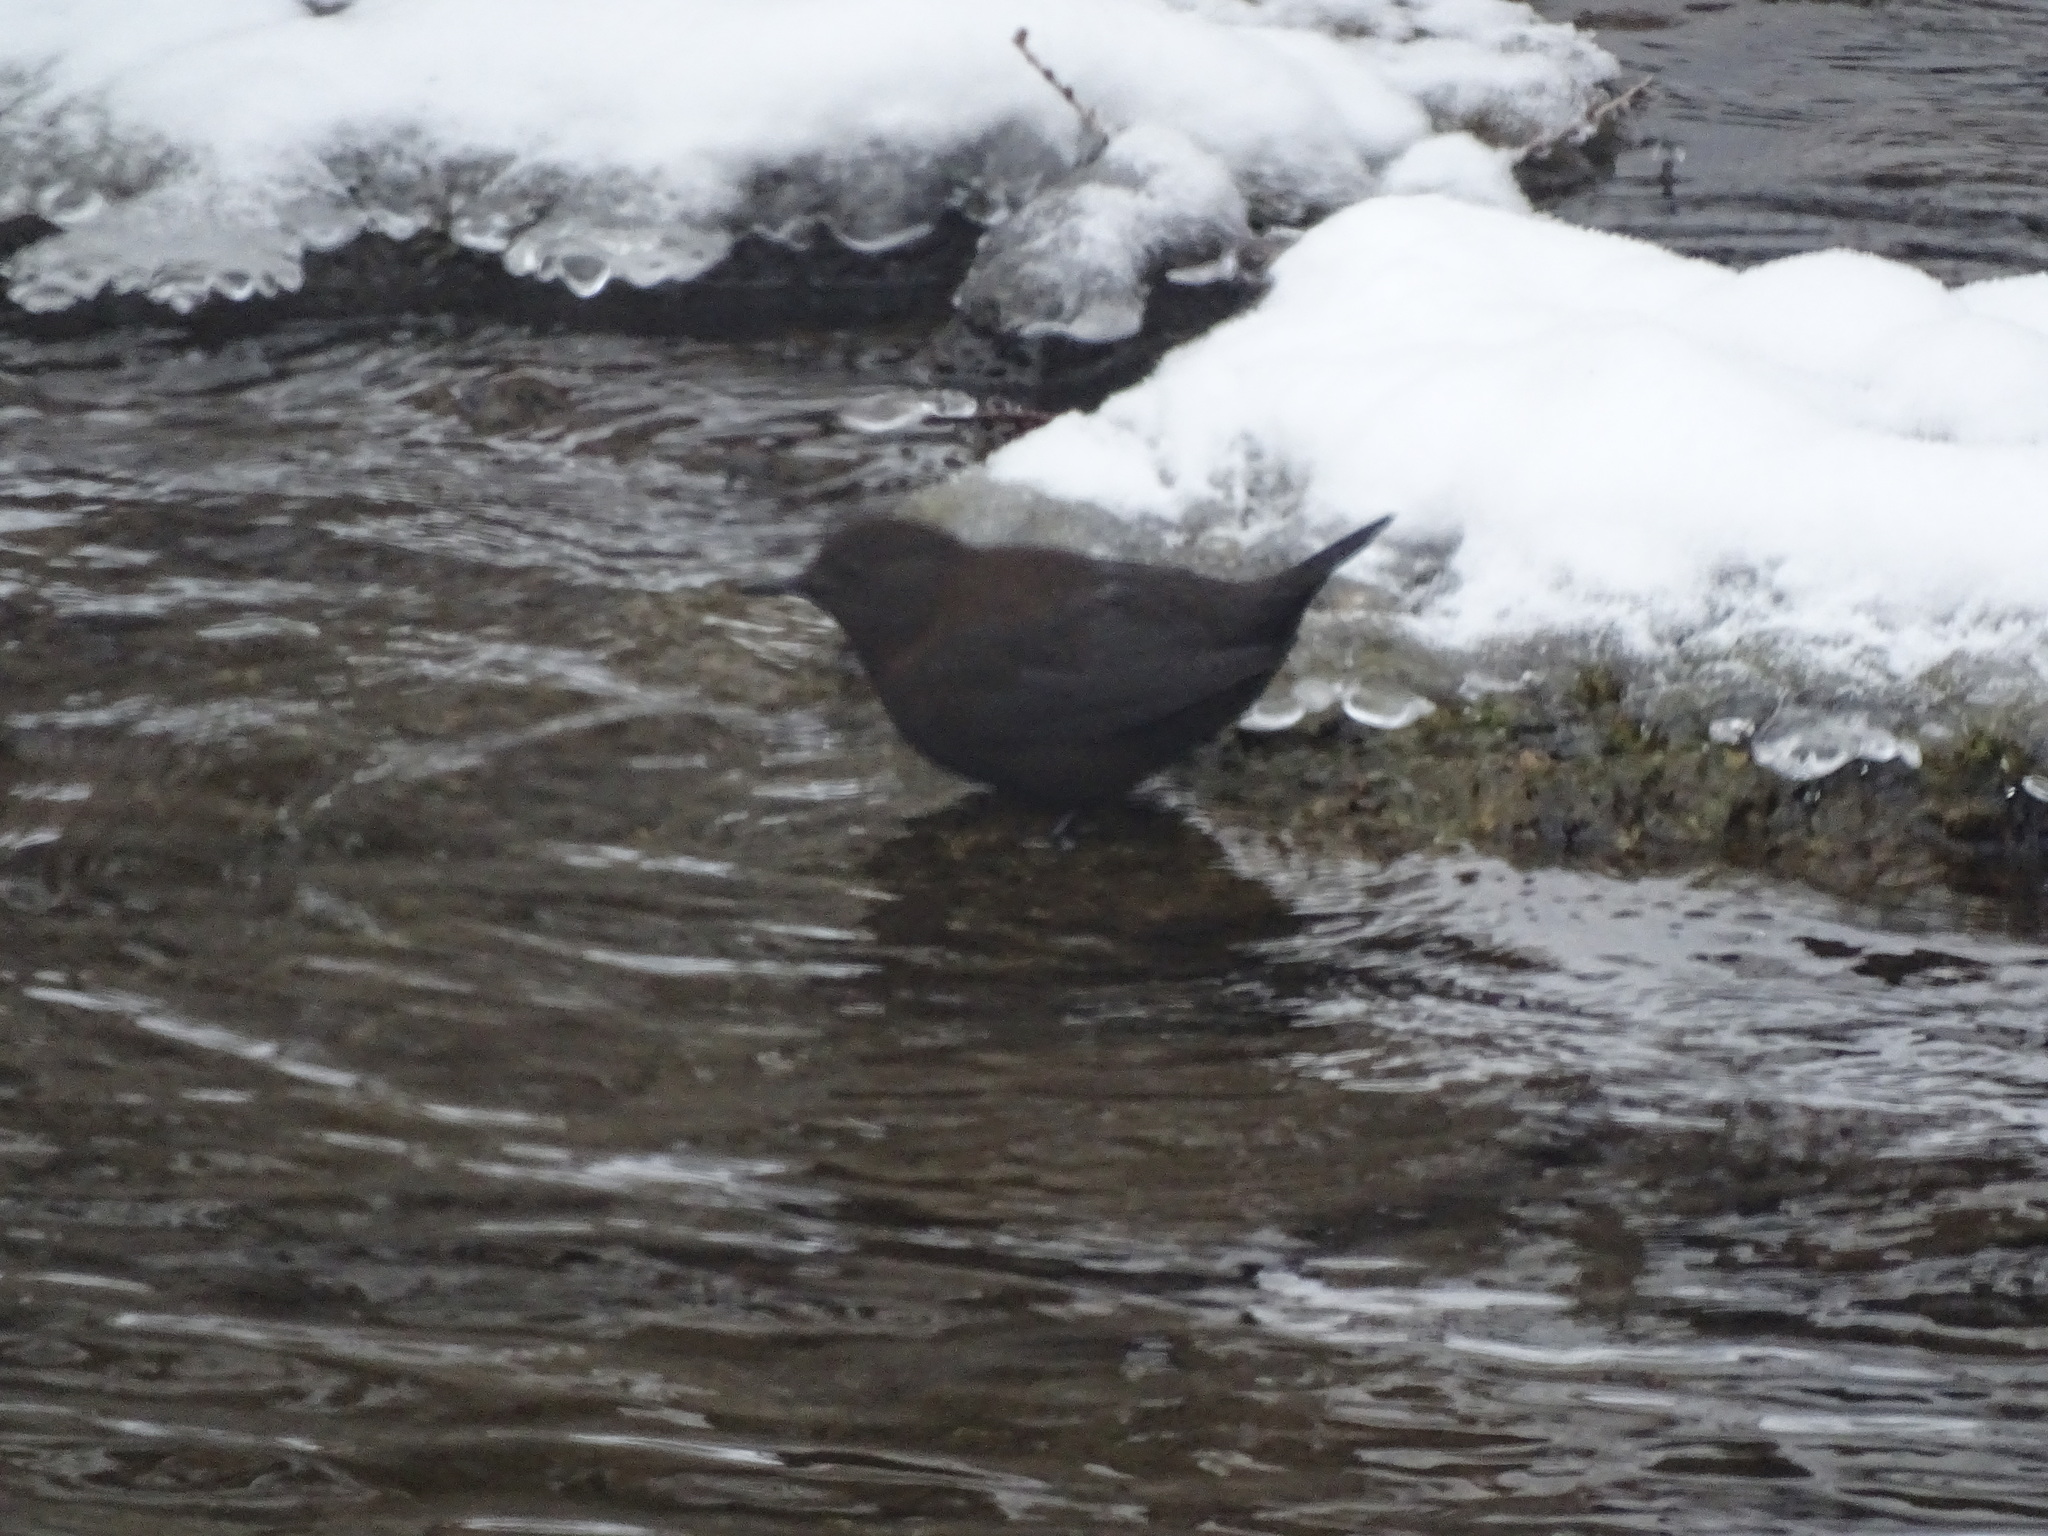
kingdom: Animalia
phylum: Chordata
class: Aves
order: Passeriformes
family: Cinclidae
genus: Cinclus
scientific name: Cinclus pallasii
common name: Brown dipper
